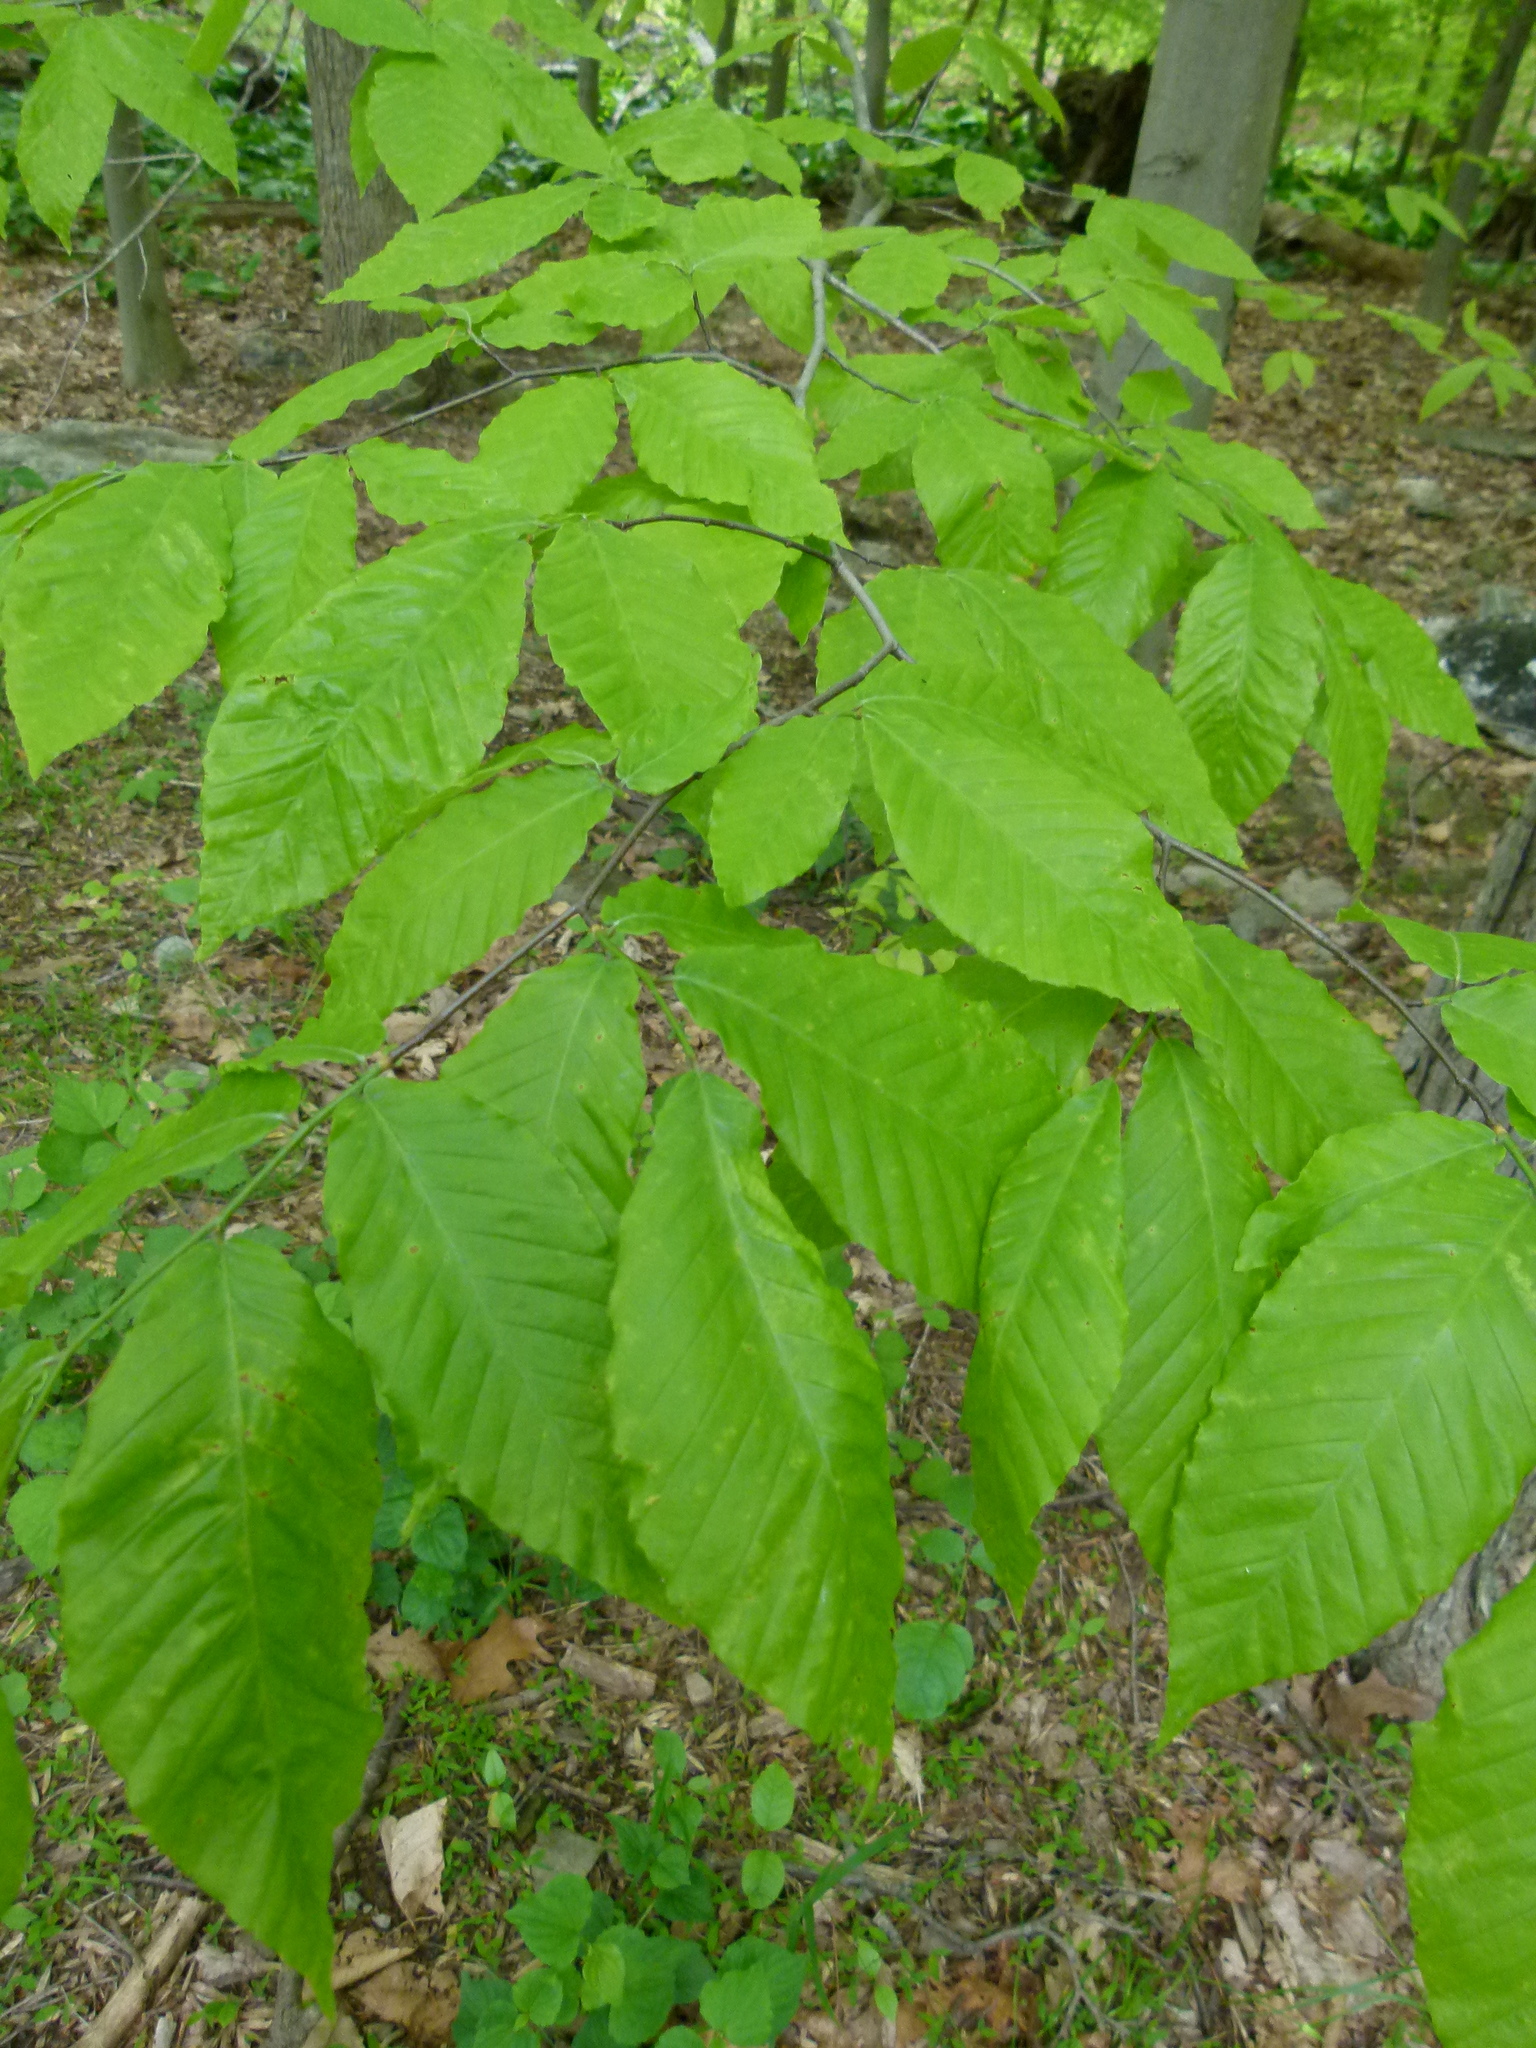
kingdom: Plantae
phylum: Tracheophyta
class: Magnoliopsida
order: Fagales
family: Fagaceae
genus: Fagus
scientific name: Fagus grandifolia
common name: American beech
